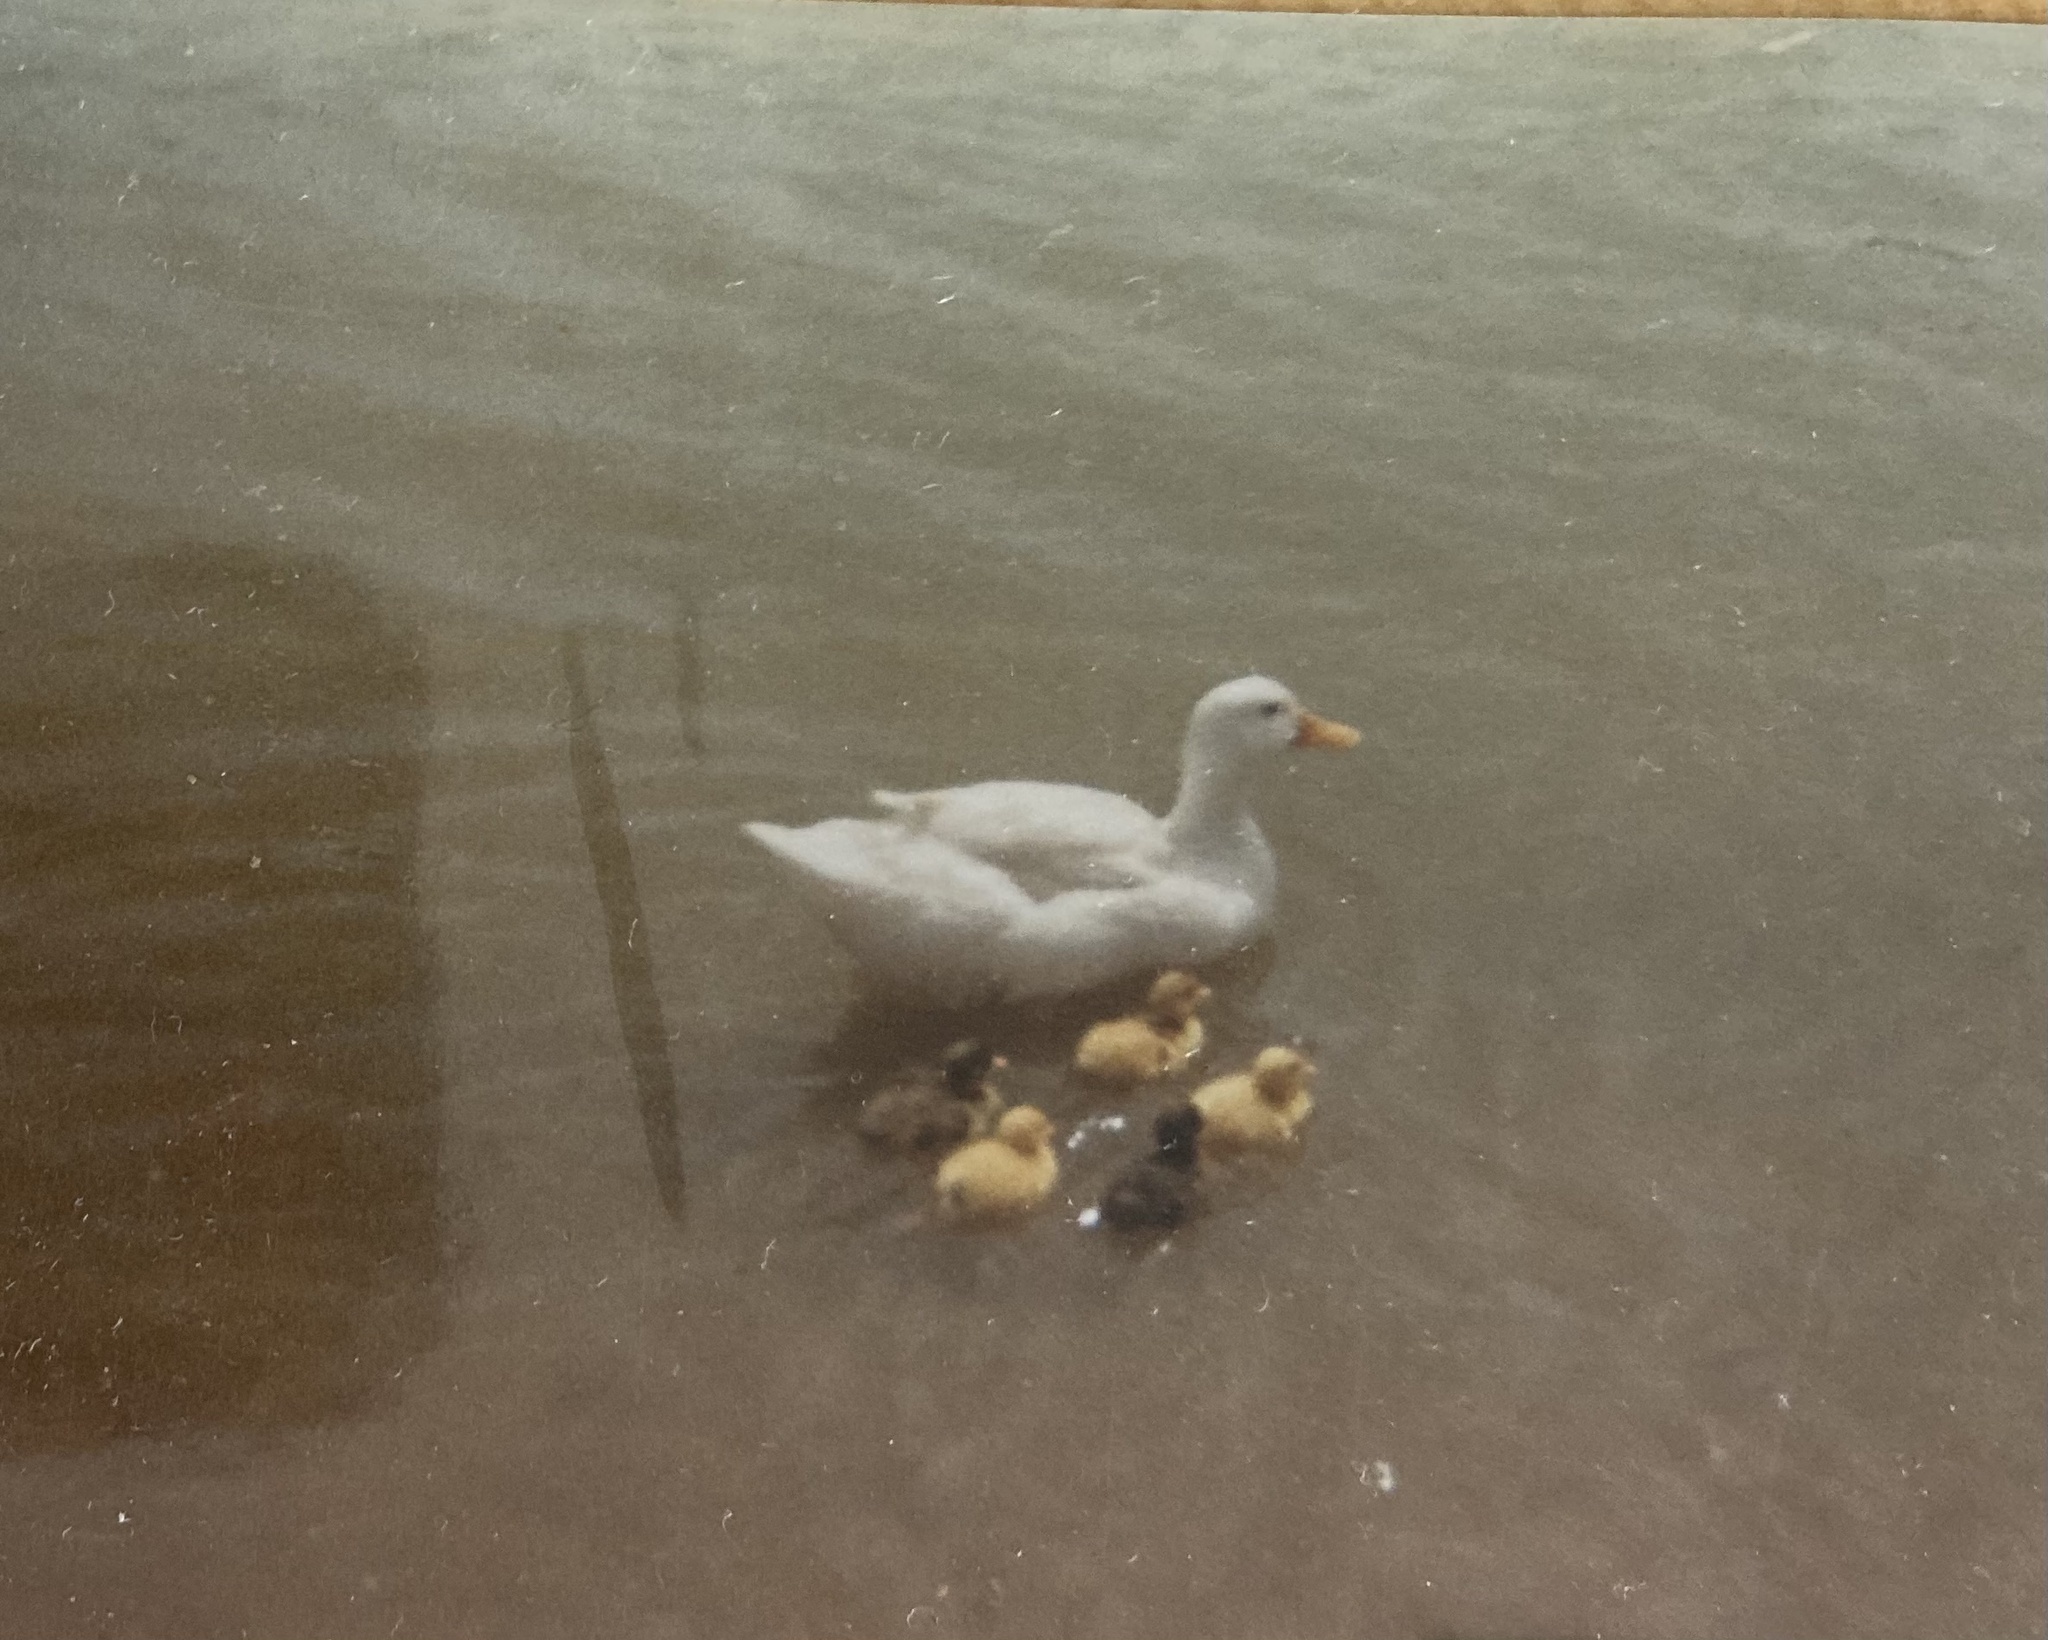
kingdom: Animalia
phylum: Chordata
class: Aves
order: Anseriformes
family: Anatidae
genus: Anas
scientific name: Anas platyrhynchos
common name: Mallard
